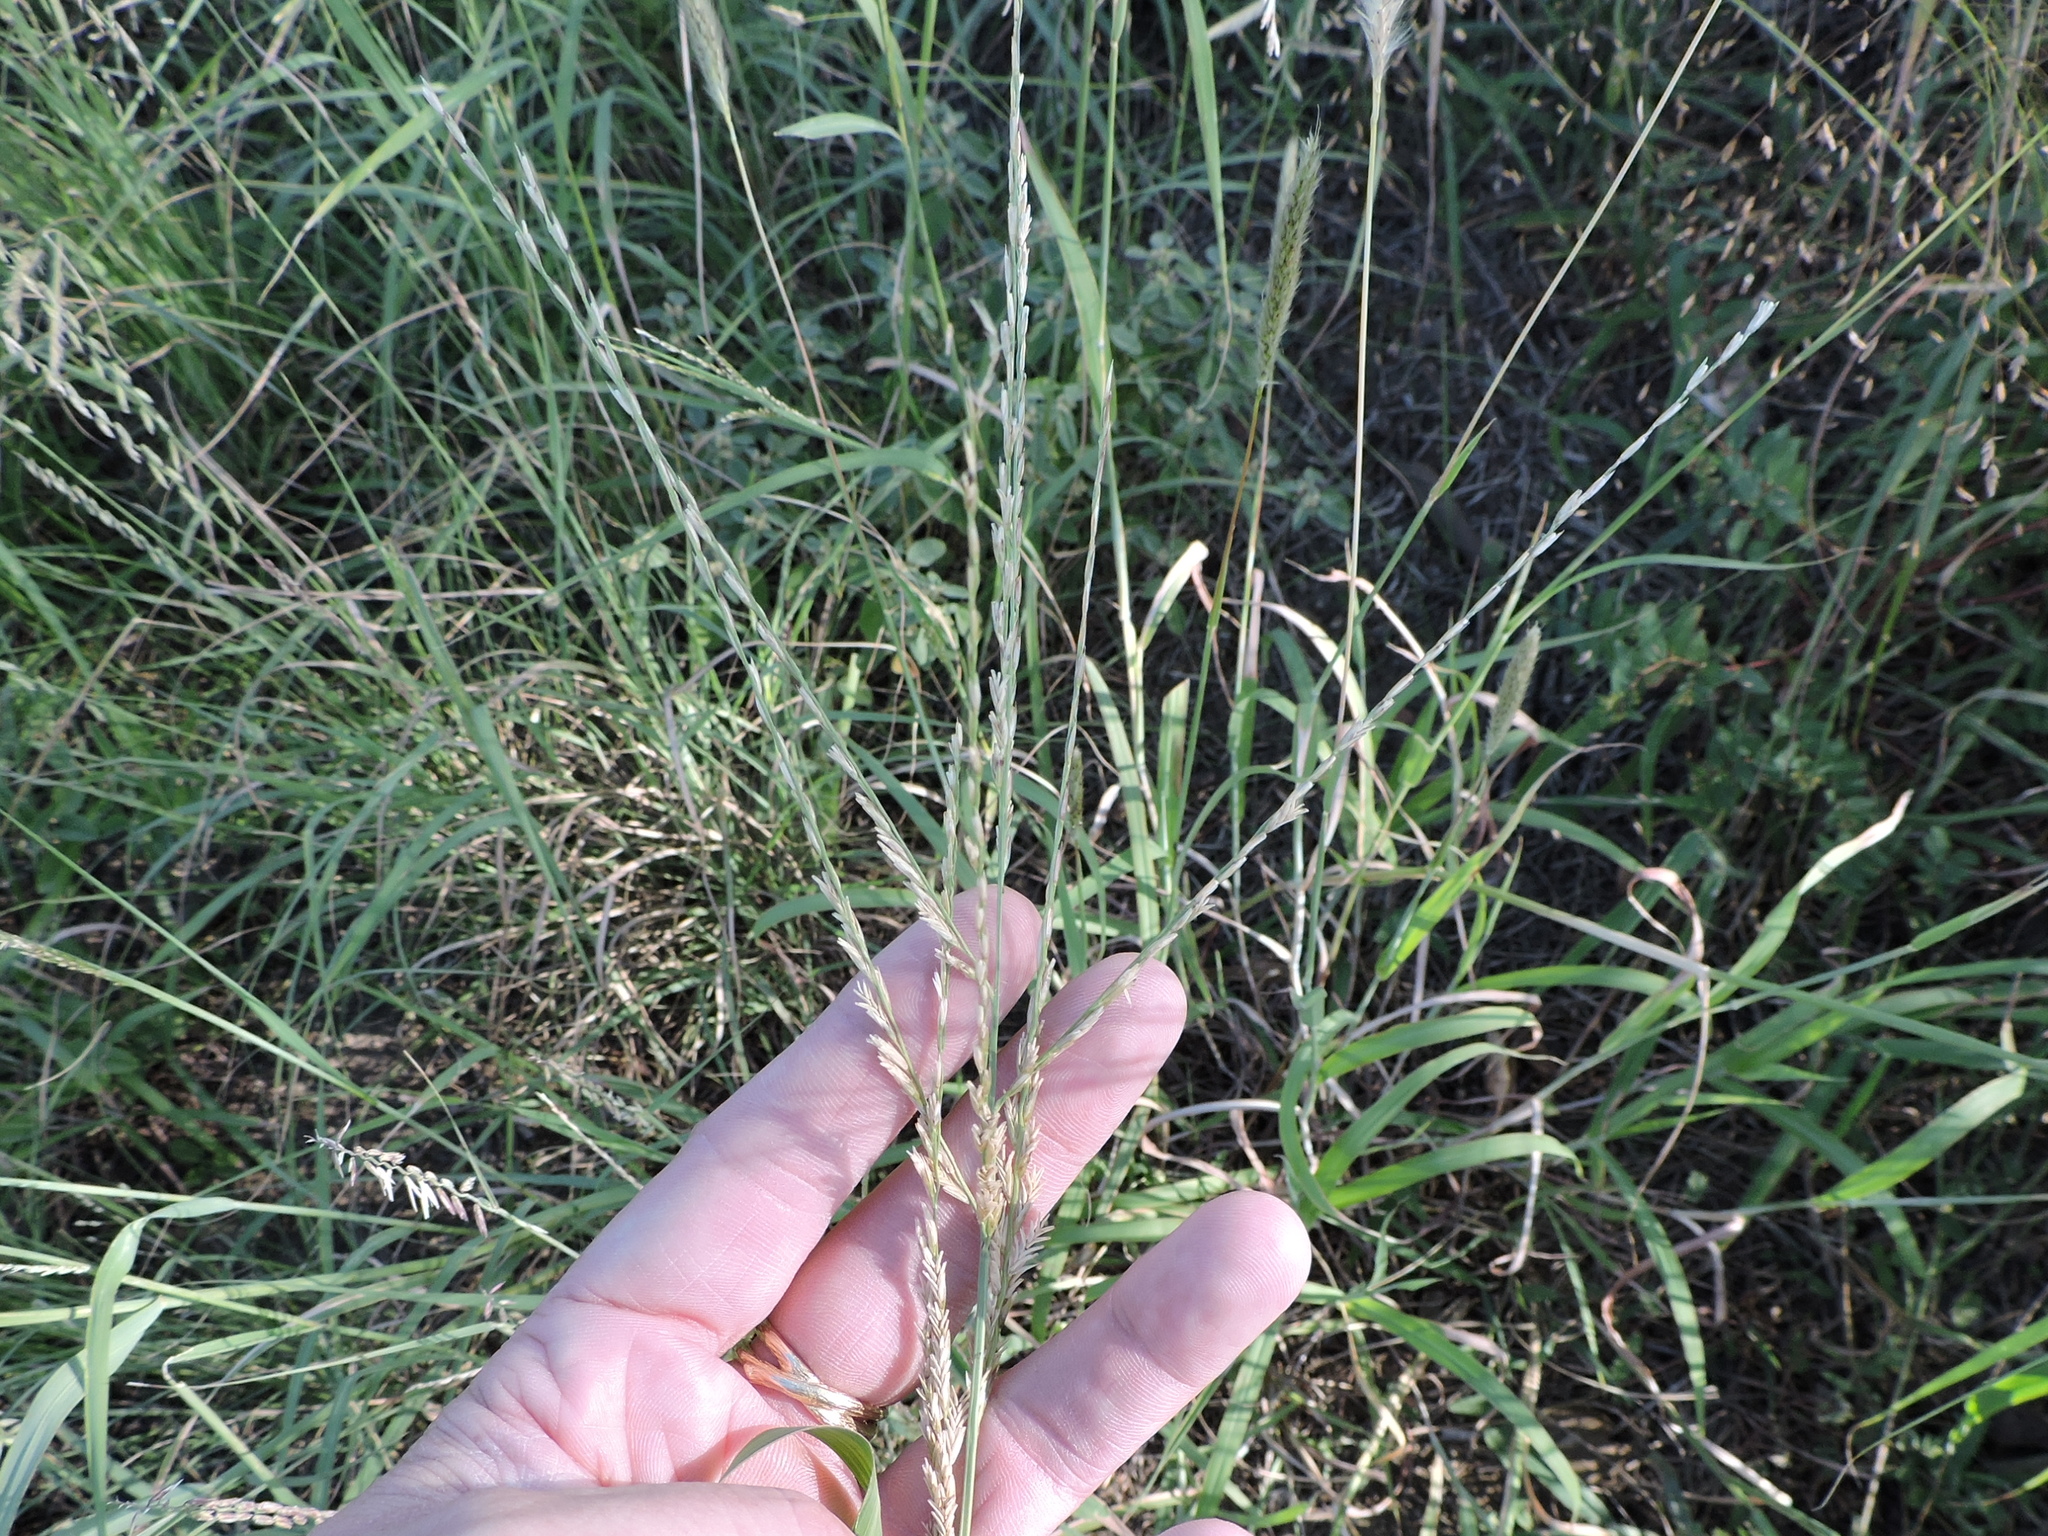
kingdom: Plantae
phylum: Tracheophyta
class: Liliopsida
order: Poales
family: Poaceae
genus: Disakisperma
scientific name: Disakisperma dubium
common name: Green sprangletop
